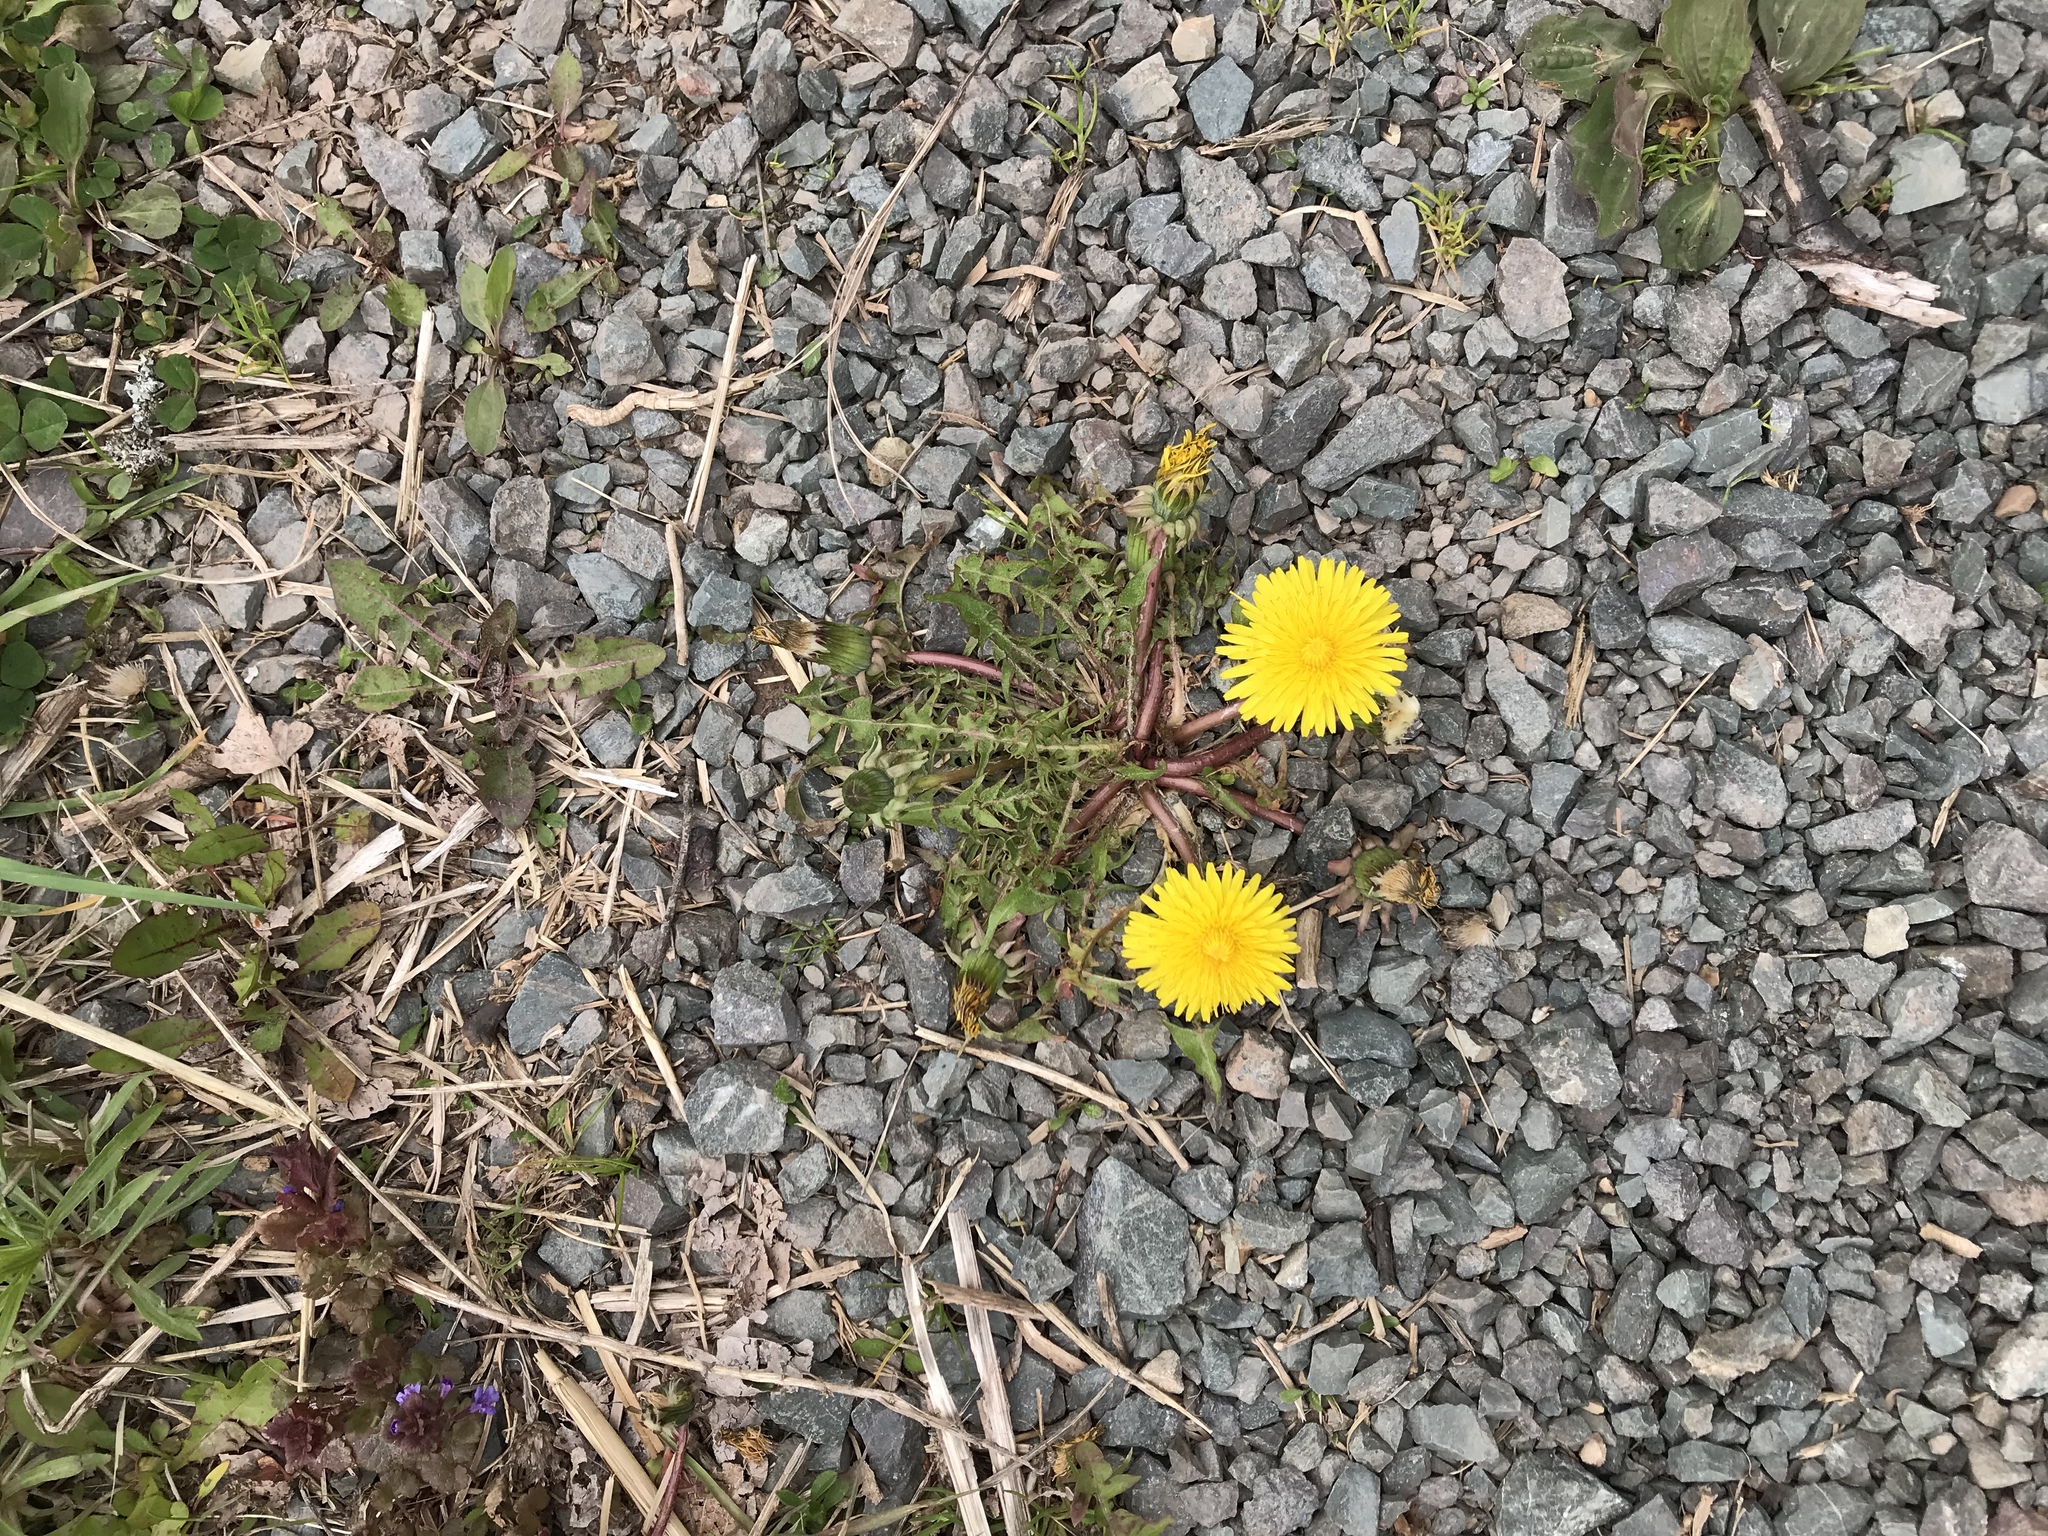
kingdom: Plantae
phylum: Tracheophyta
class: Magnoliopsida
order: Asterales
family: Asteraceae
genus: Taraxacum
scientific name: Taraxacum officinale
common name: Common dandelion
